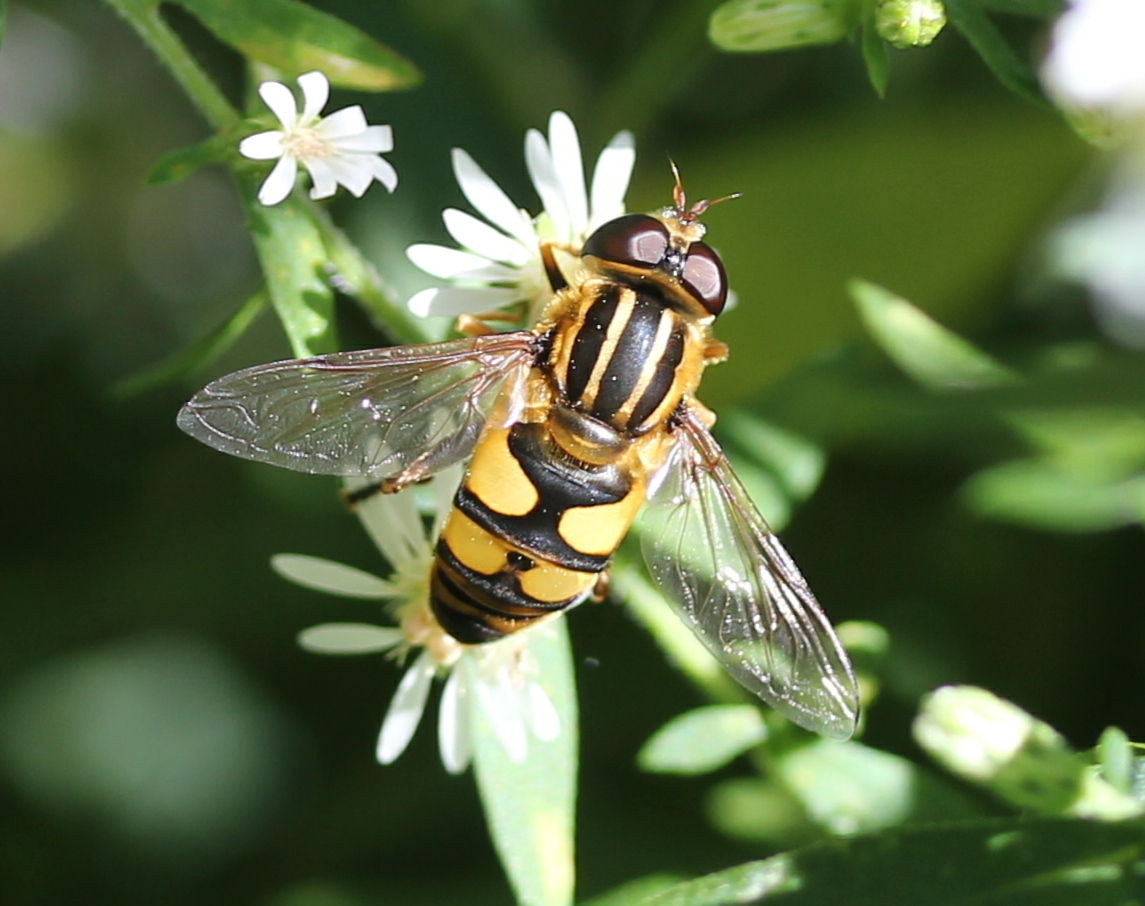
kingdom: Animalia
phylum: Arthropoda
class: Insecta
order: Diptera
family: Syrphidae
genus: Helophilus
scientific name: Helophilus fasciatus
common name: Narrow-headed marsh fly
